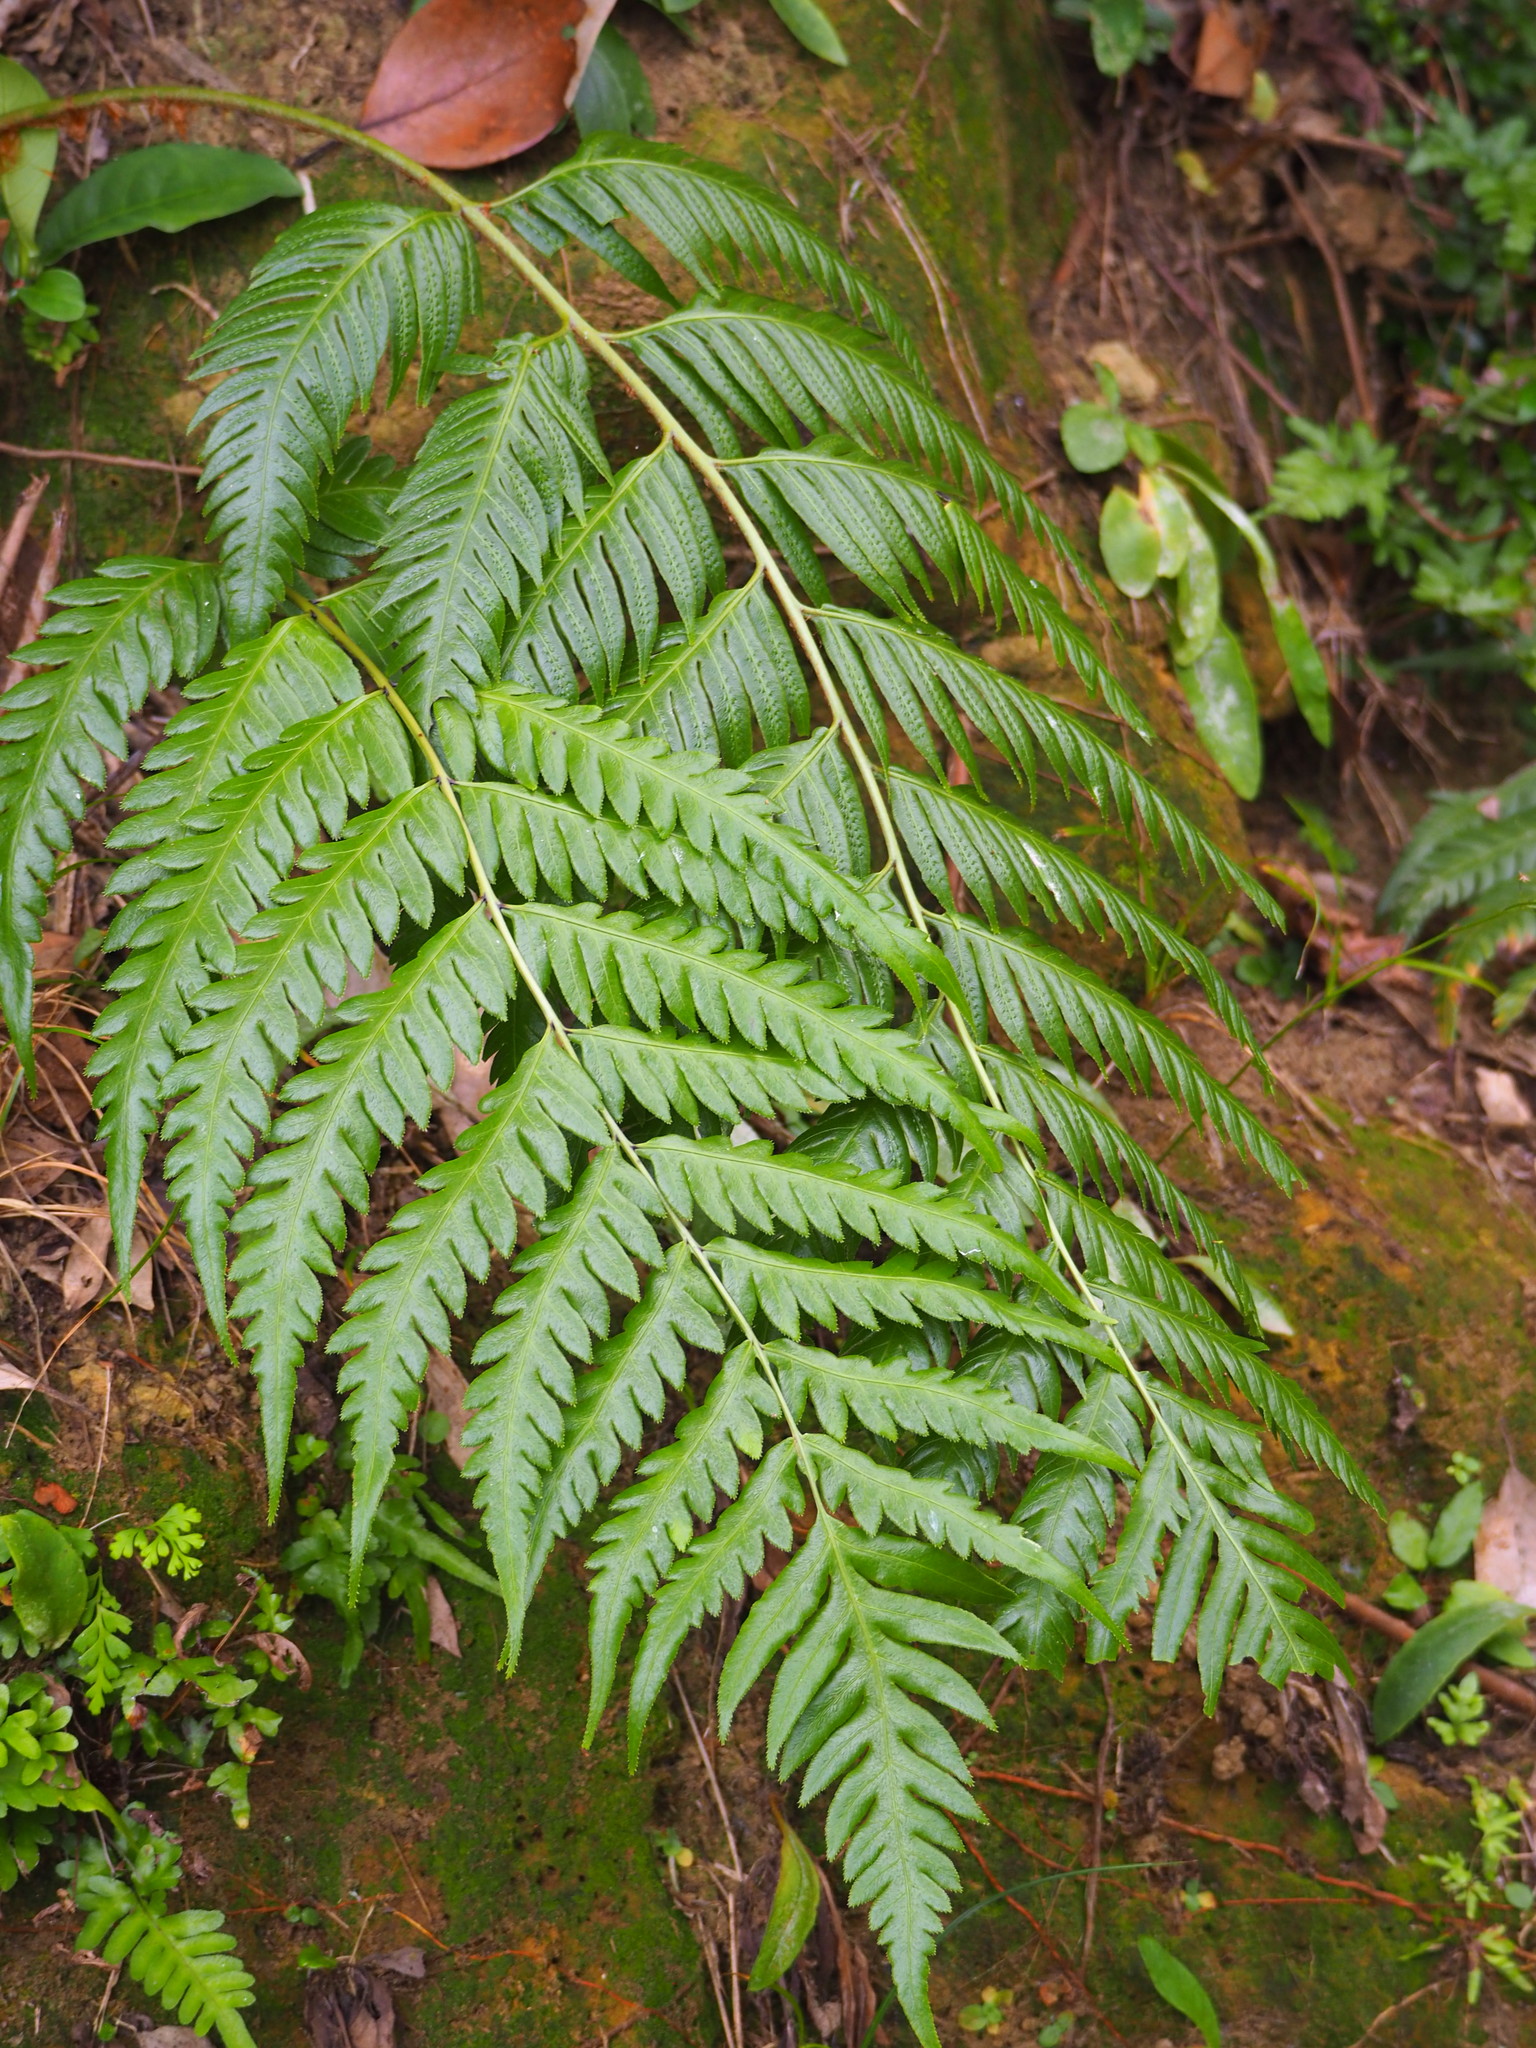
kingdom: Plantae
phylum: Tracheophyta
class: Polypodiopsida
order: Polypodiales
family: Blechnaceae
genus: Woodwardia
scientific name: Woodwardia prolifera
